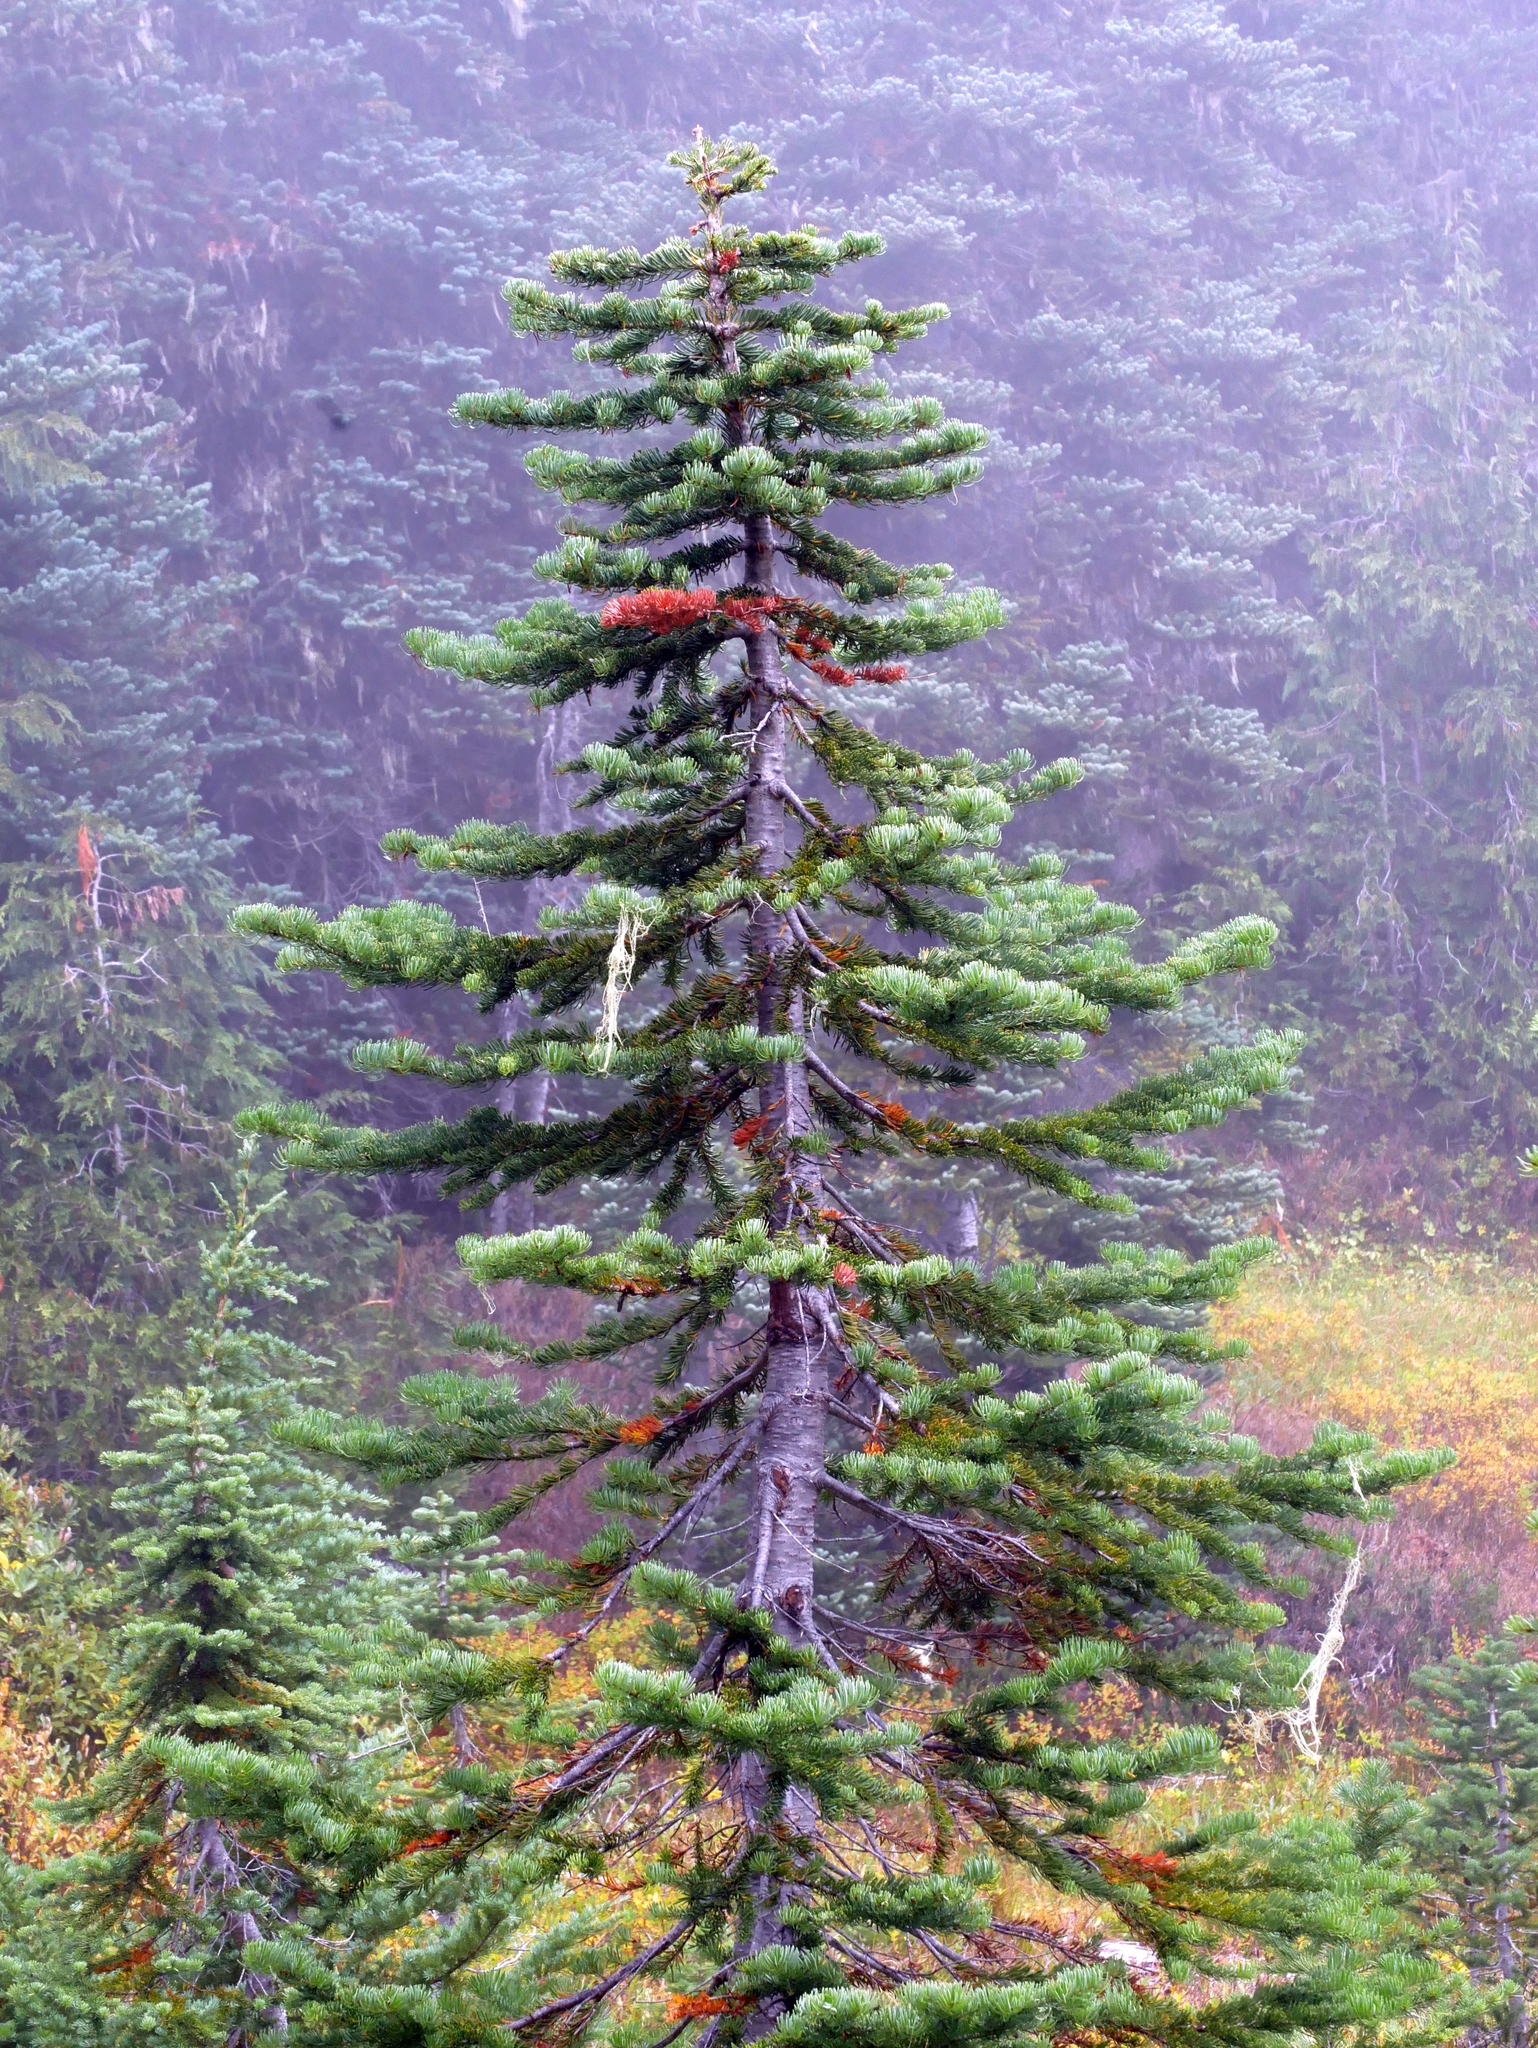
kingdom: Plantae
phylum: Tracheophyta
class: Pinopsida
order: Pinales
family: Pinaceae
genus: Abies
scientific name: Abies lasiocarpa
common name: Subalpine fir
